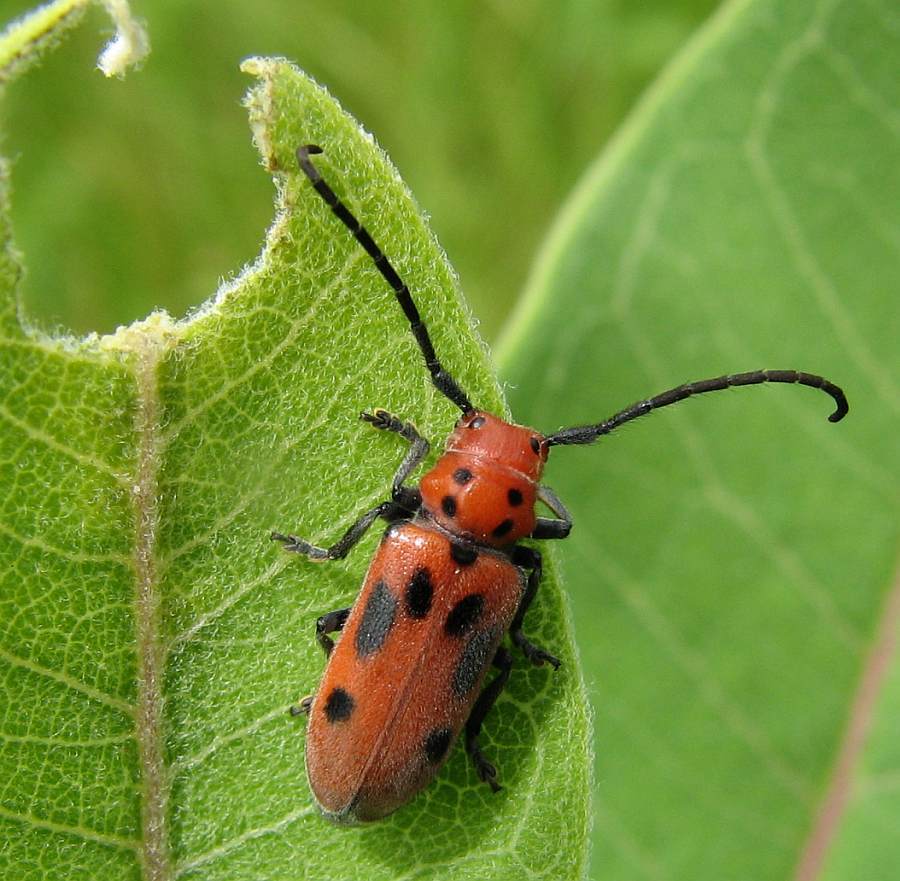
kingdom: Animalia
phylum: Arthropoda
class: Insecta
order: Coleoptera
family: Cerambycidae
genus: Tetraopes
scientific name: Tetraopes tetrophthalmus
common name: Red milkweed beetle
